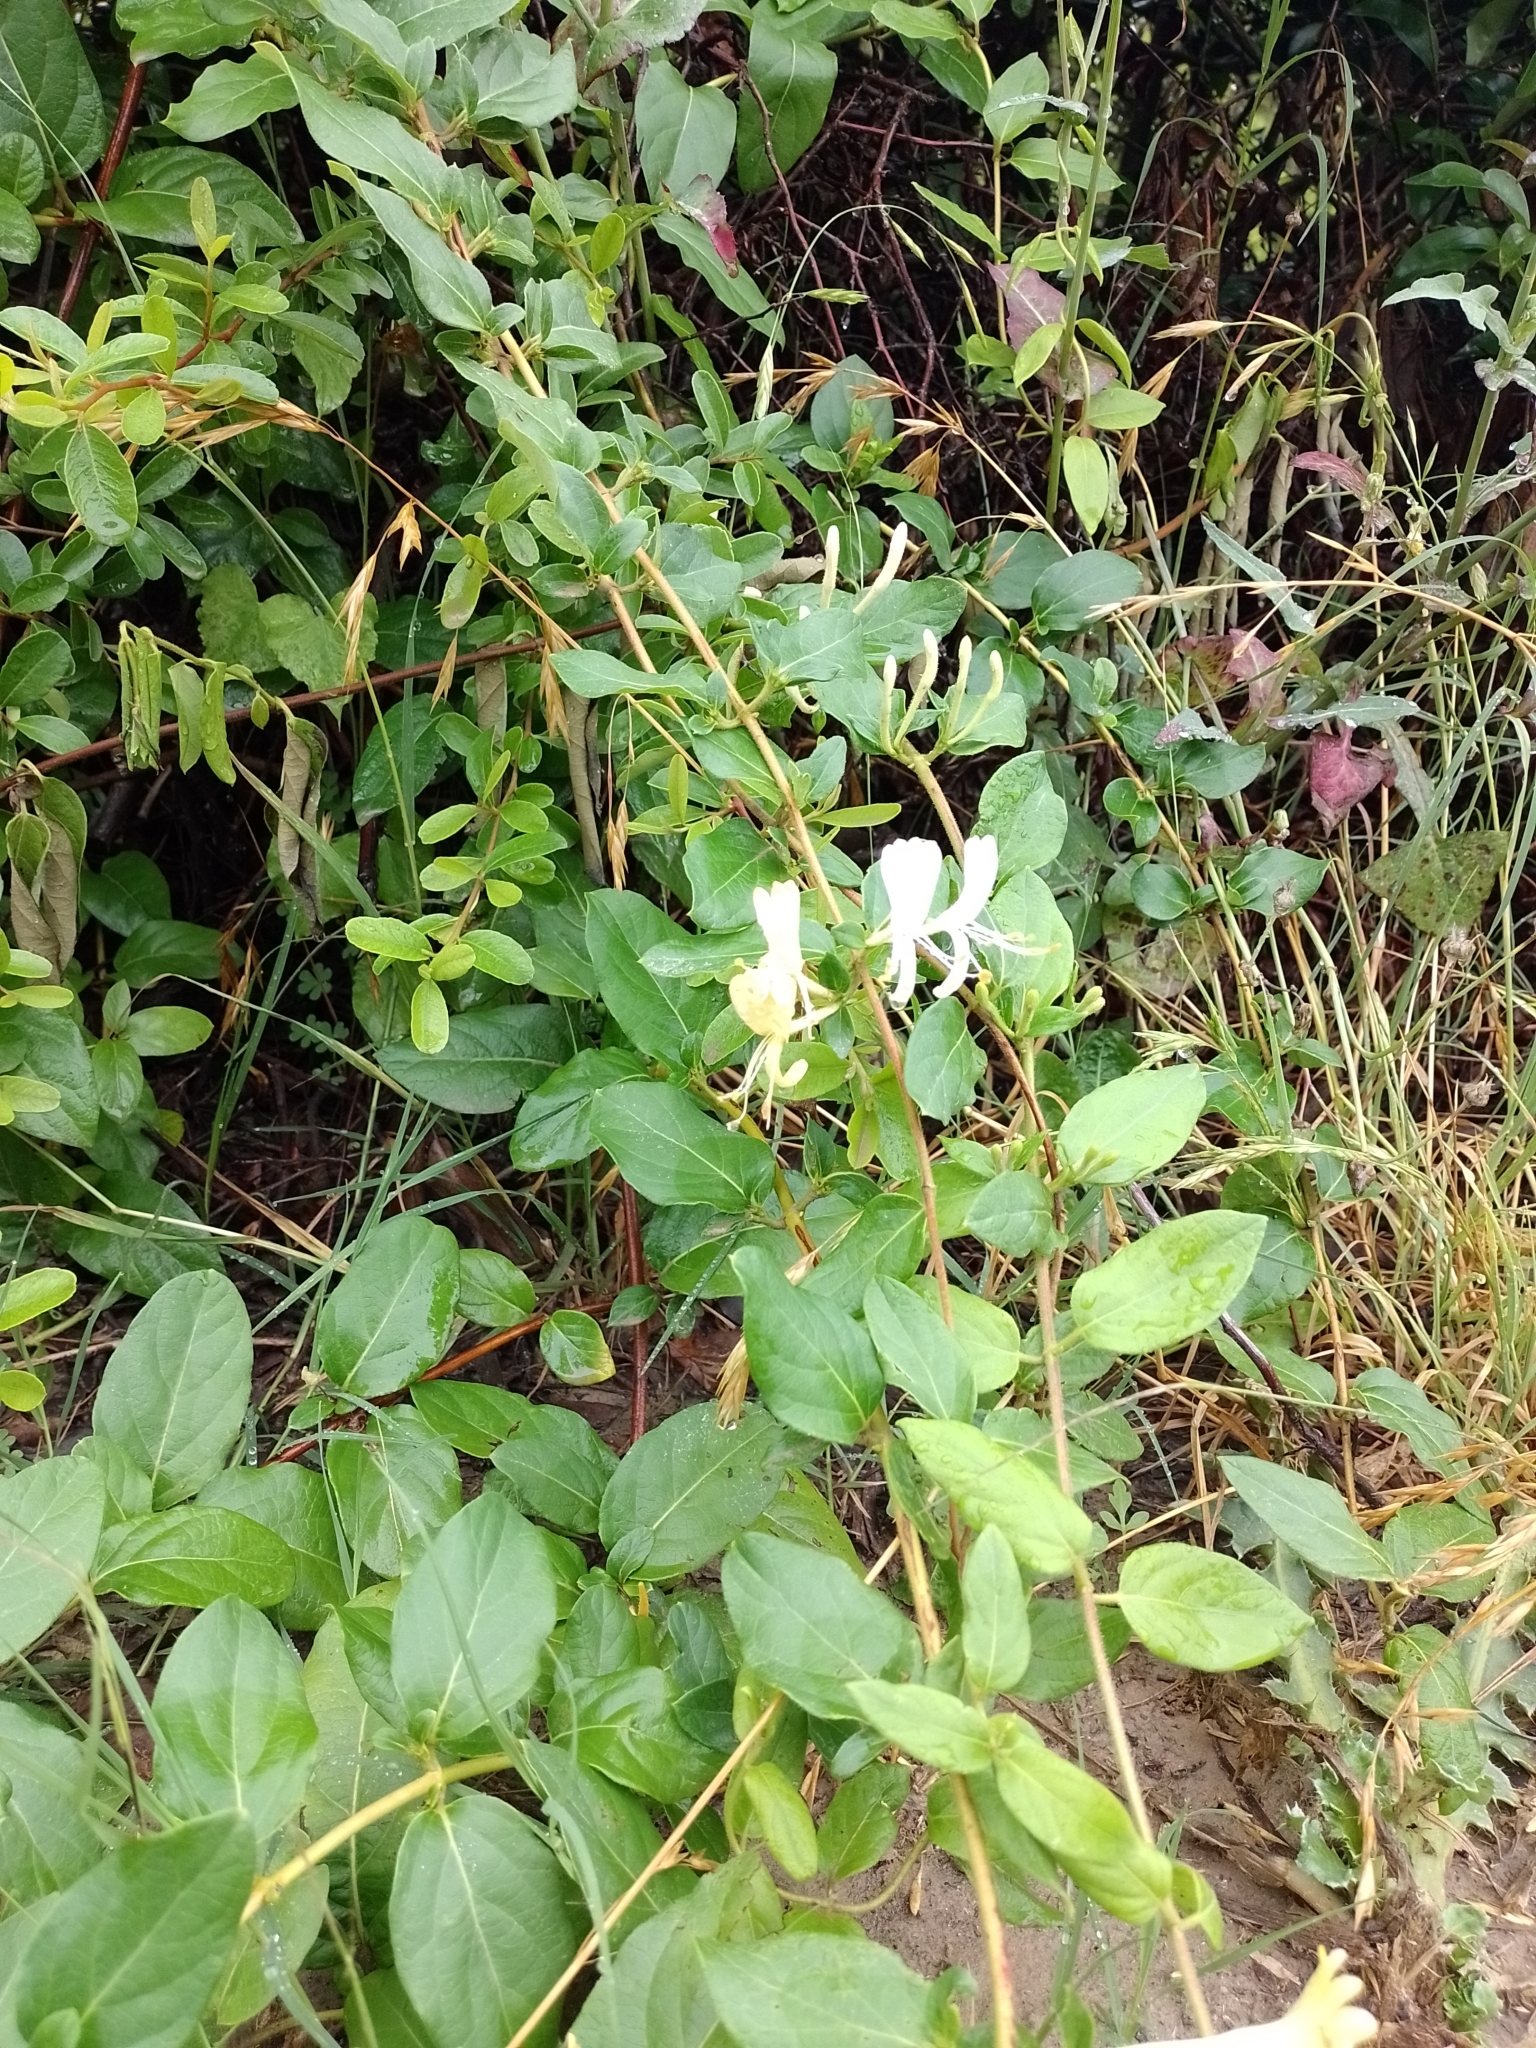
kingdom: Plantae
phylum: Tracheophyta
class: Magnoliopsida
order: Dipsacales
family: Caprifoliaceae
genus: Lonicera
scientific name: Lonicera japonica
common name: Japanese honeysuckle
